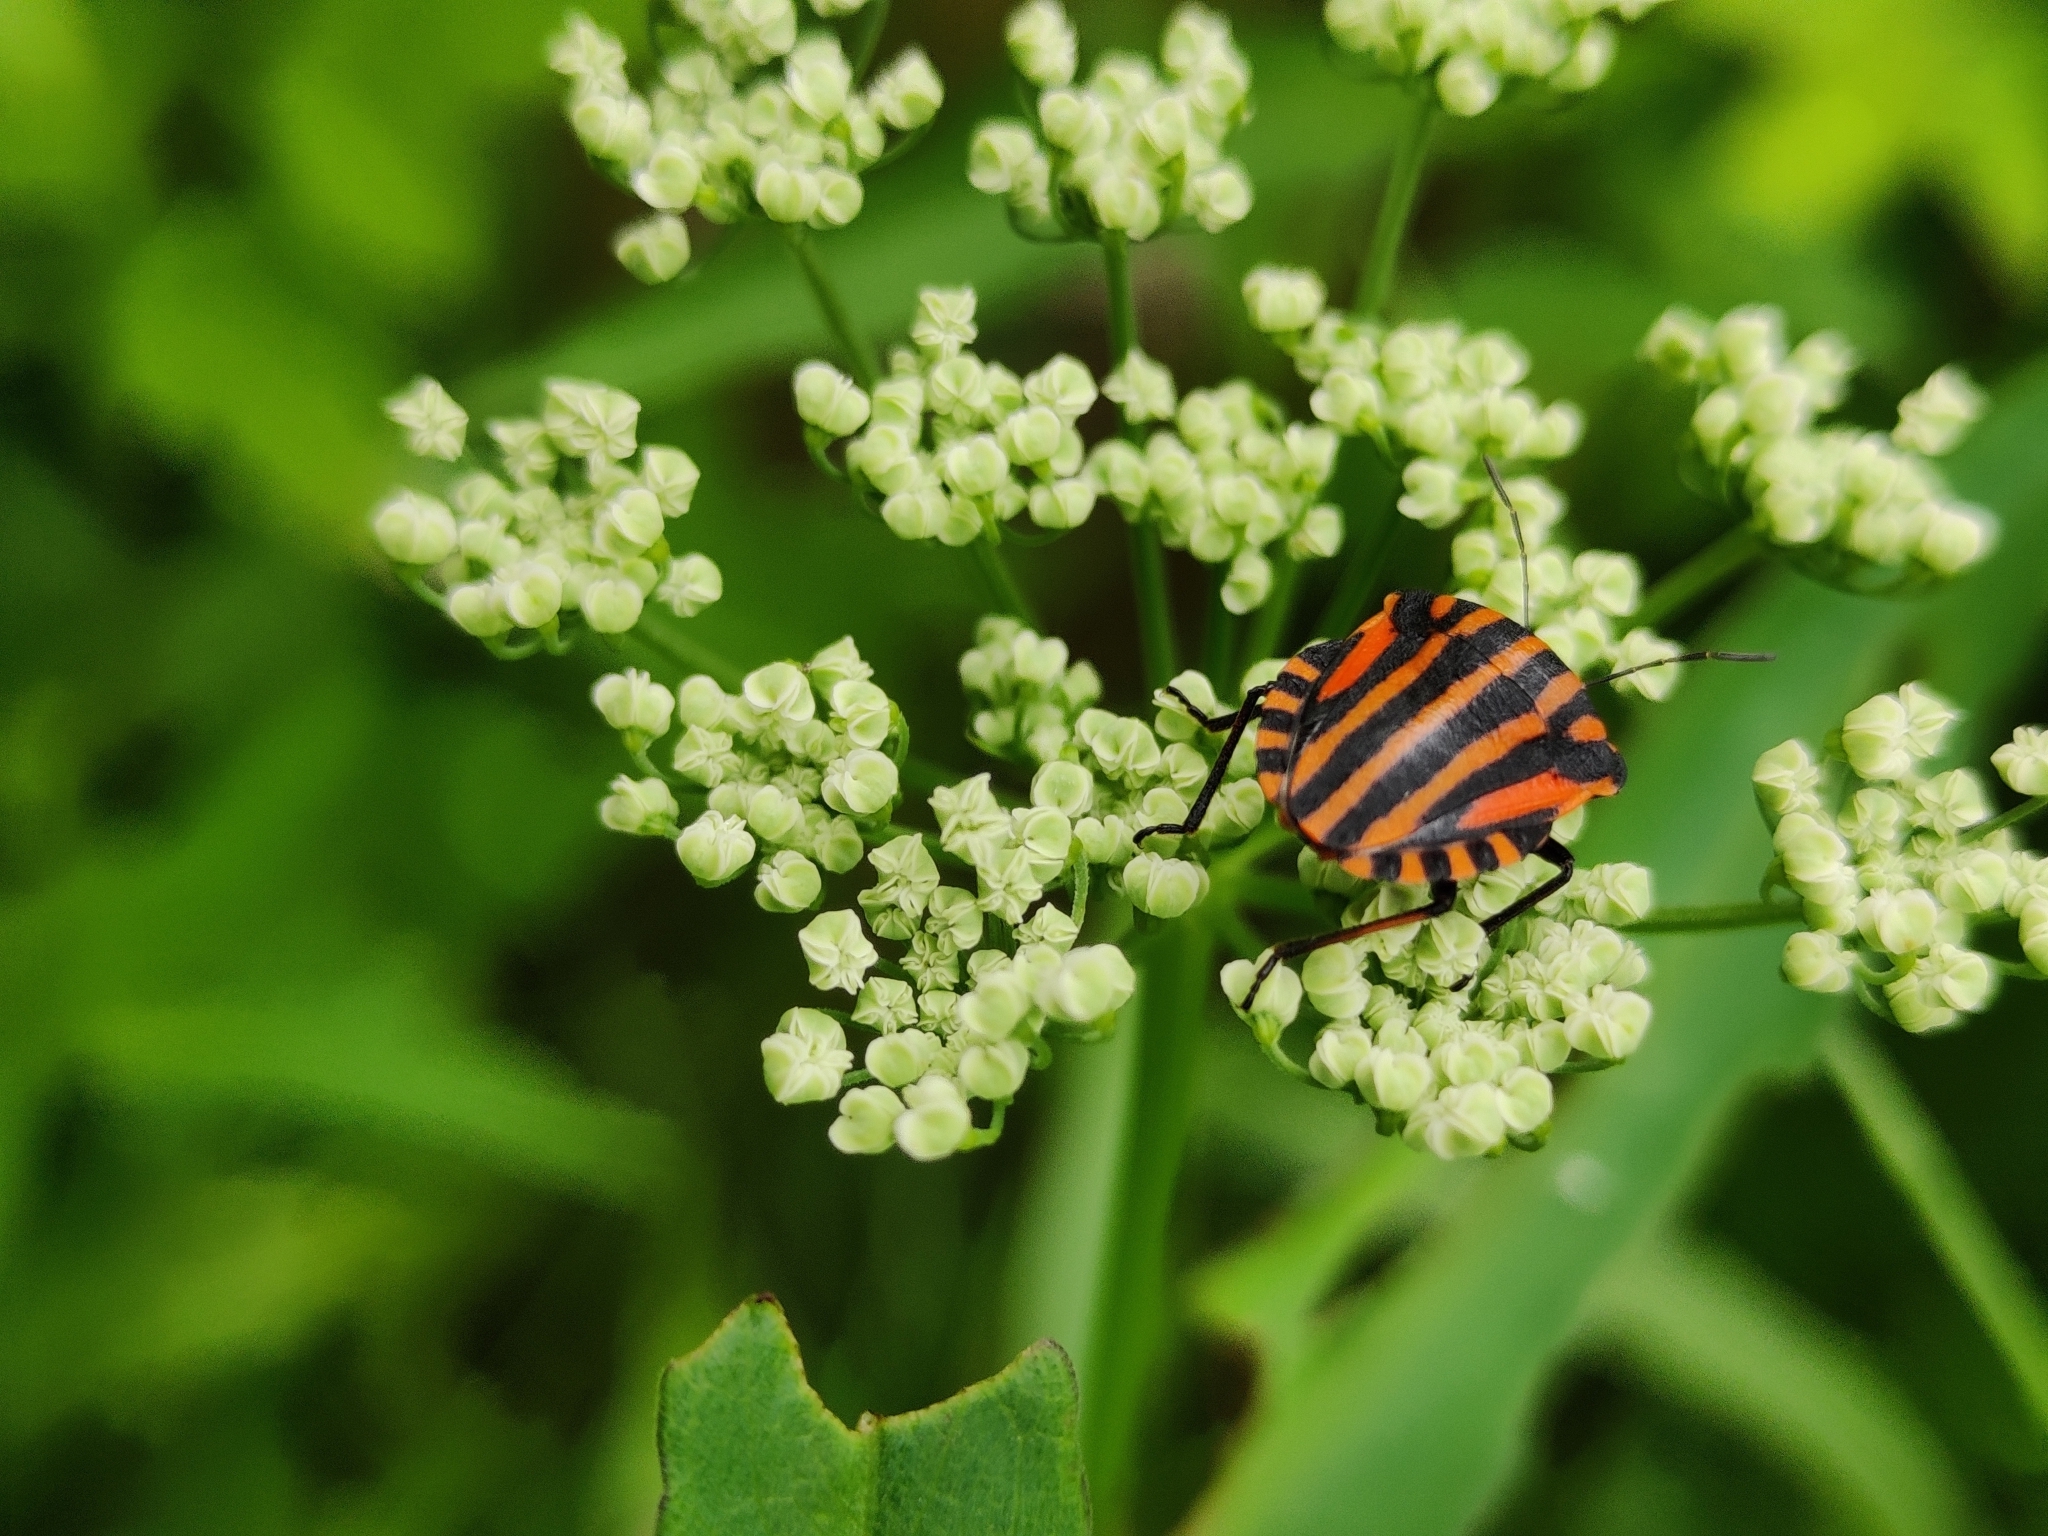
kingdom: Animalia
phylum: Arthropoda
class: Insecta
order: Hemiptera
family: Pentatomidae
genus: Graphosoma
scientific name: Graphosoma italicum
